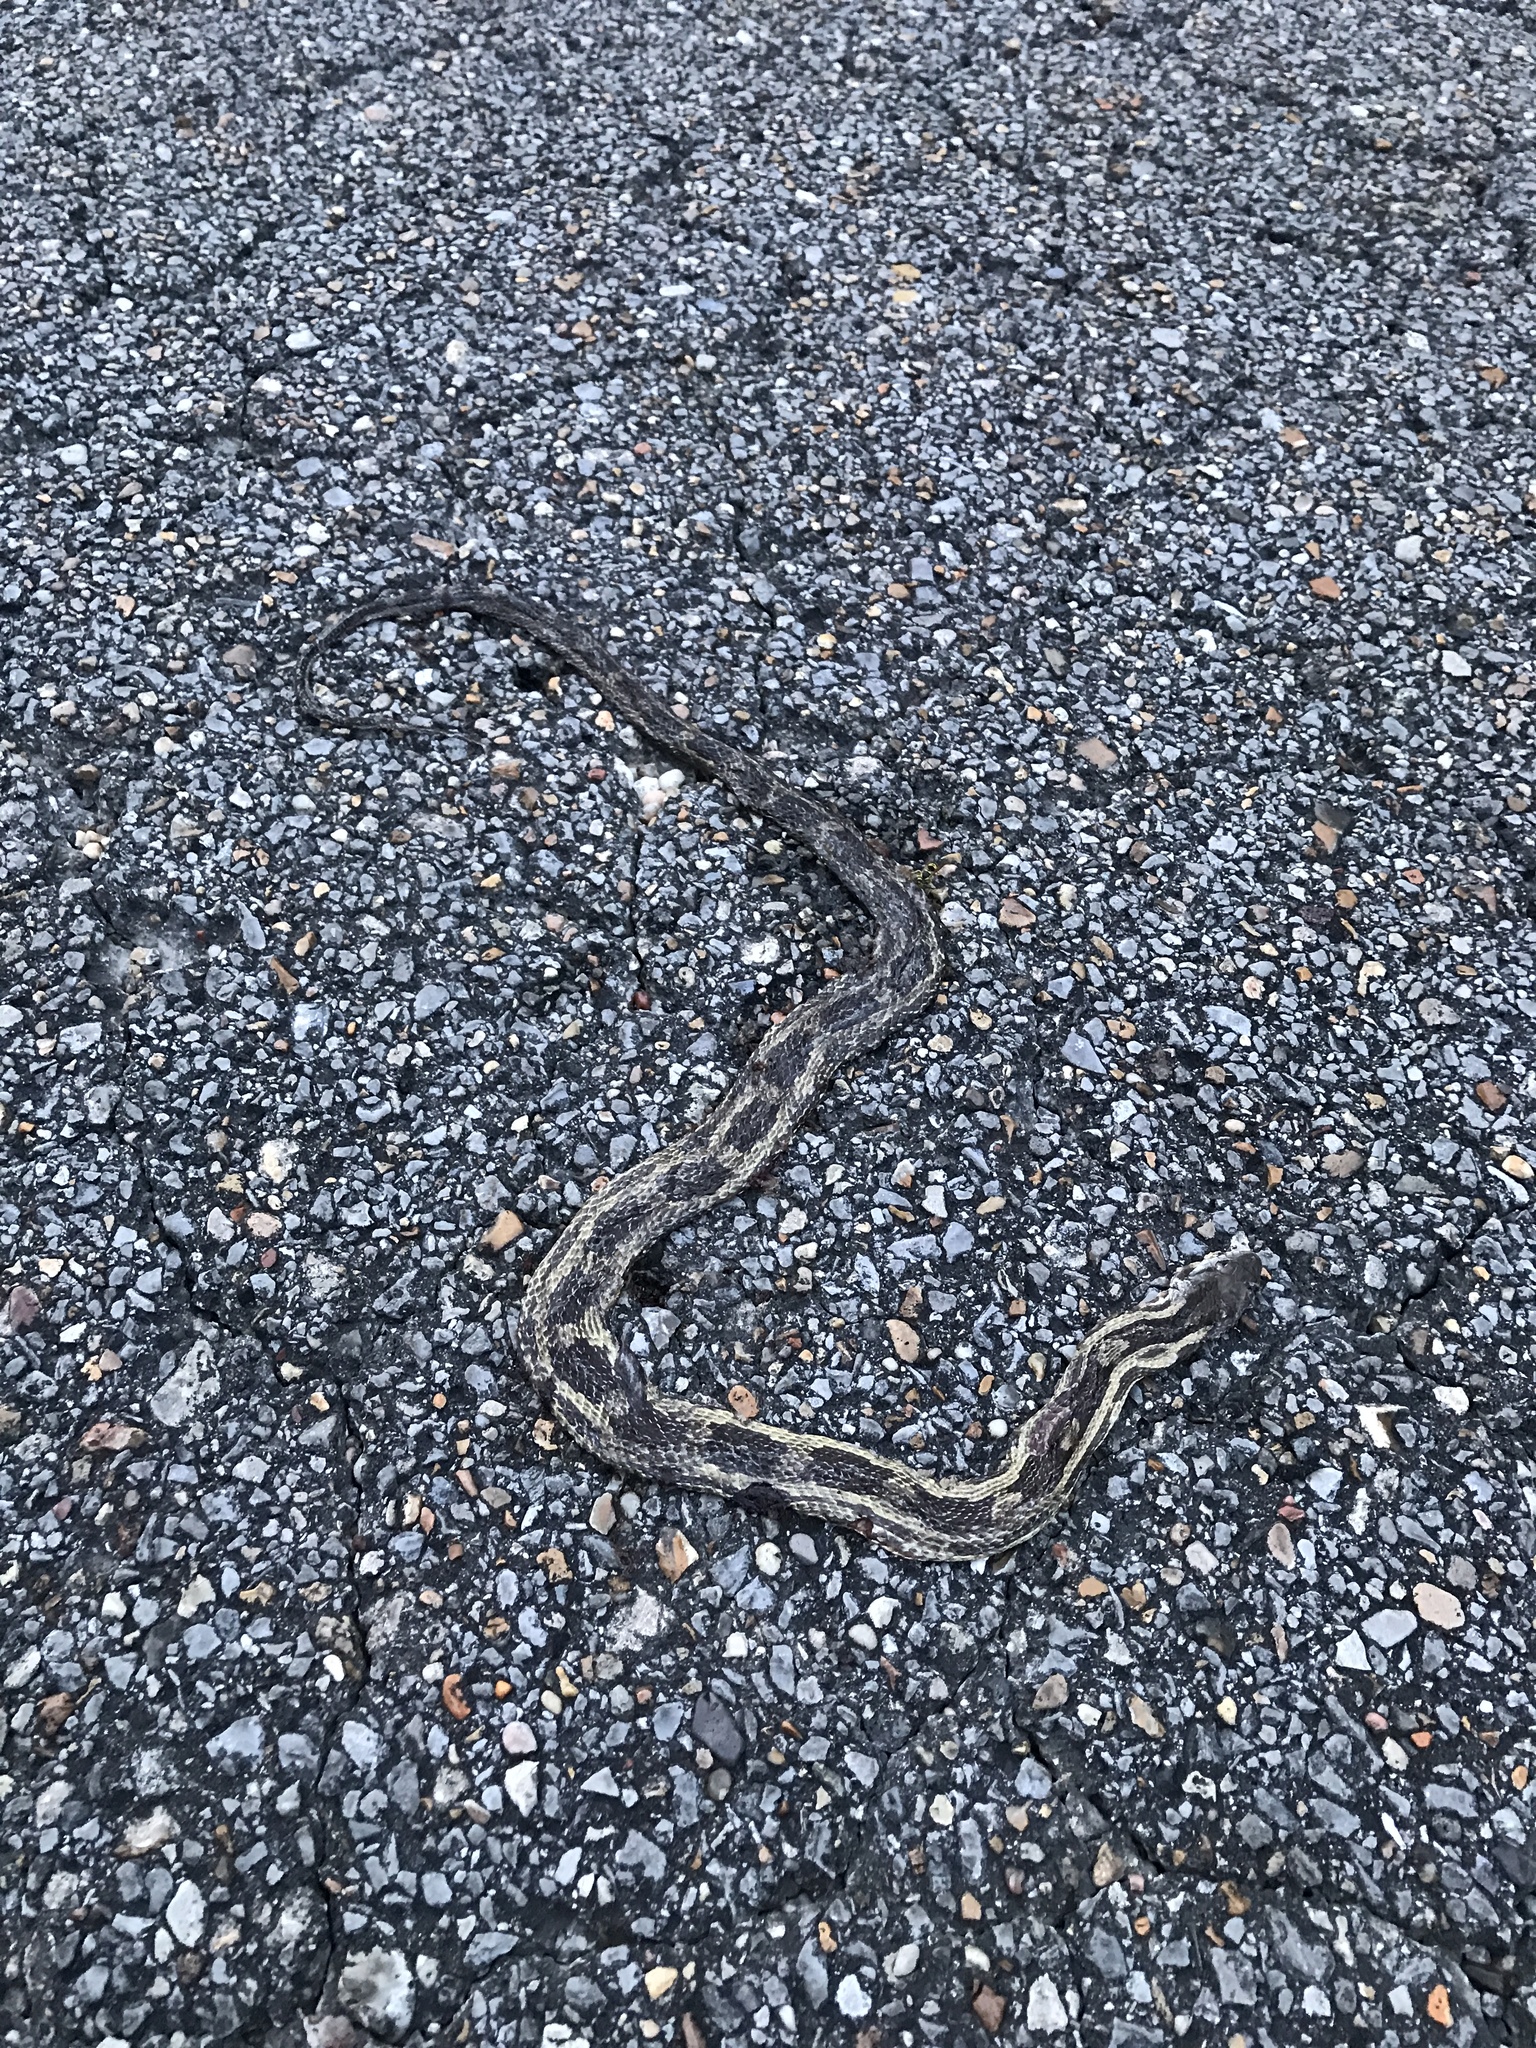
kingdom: Animalia
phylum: Chordata
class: Squamata
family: Colubridae
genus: Pantherophis
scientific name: Pantherophis spiloides
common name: Gray rat snake
